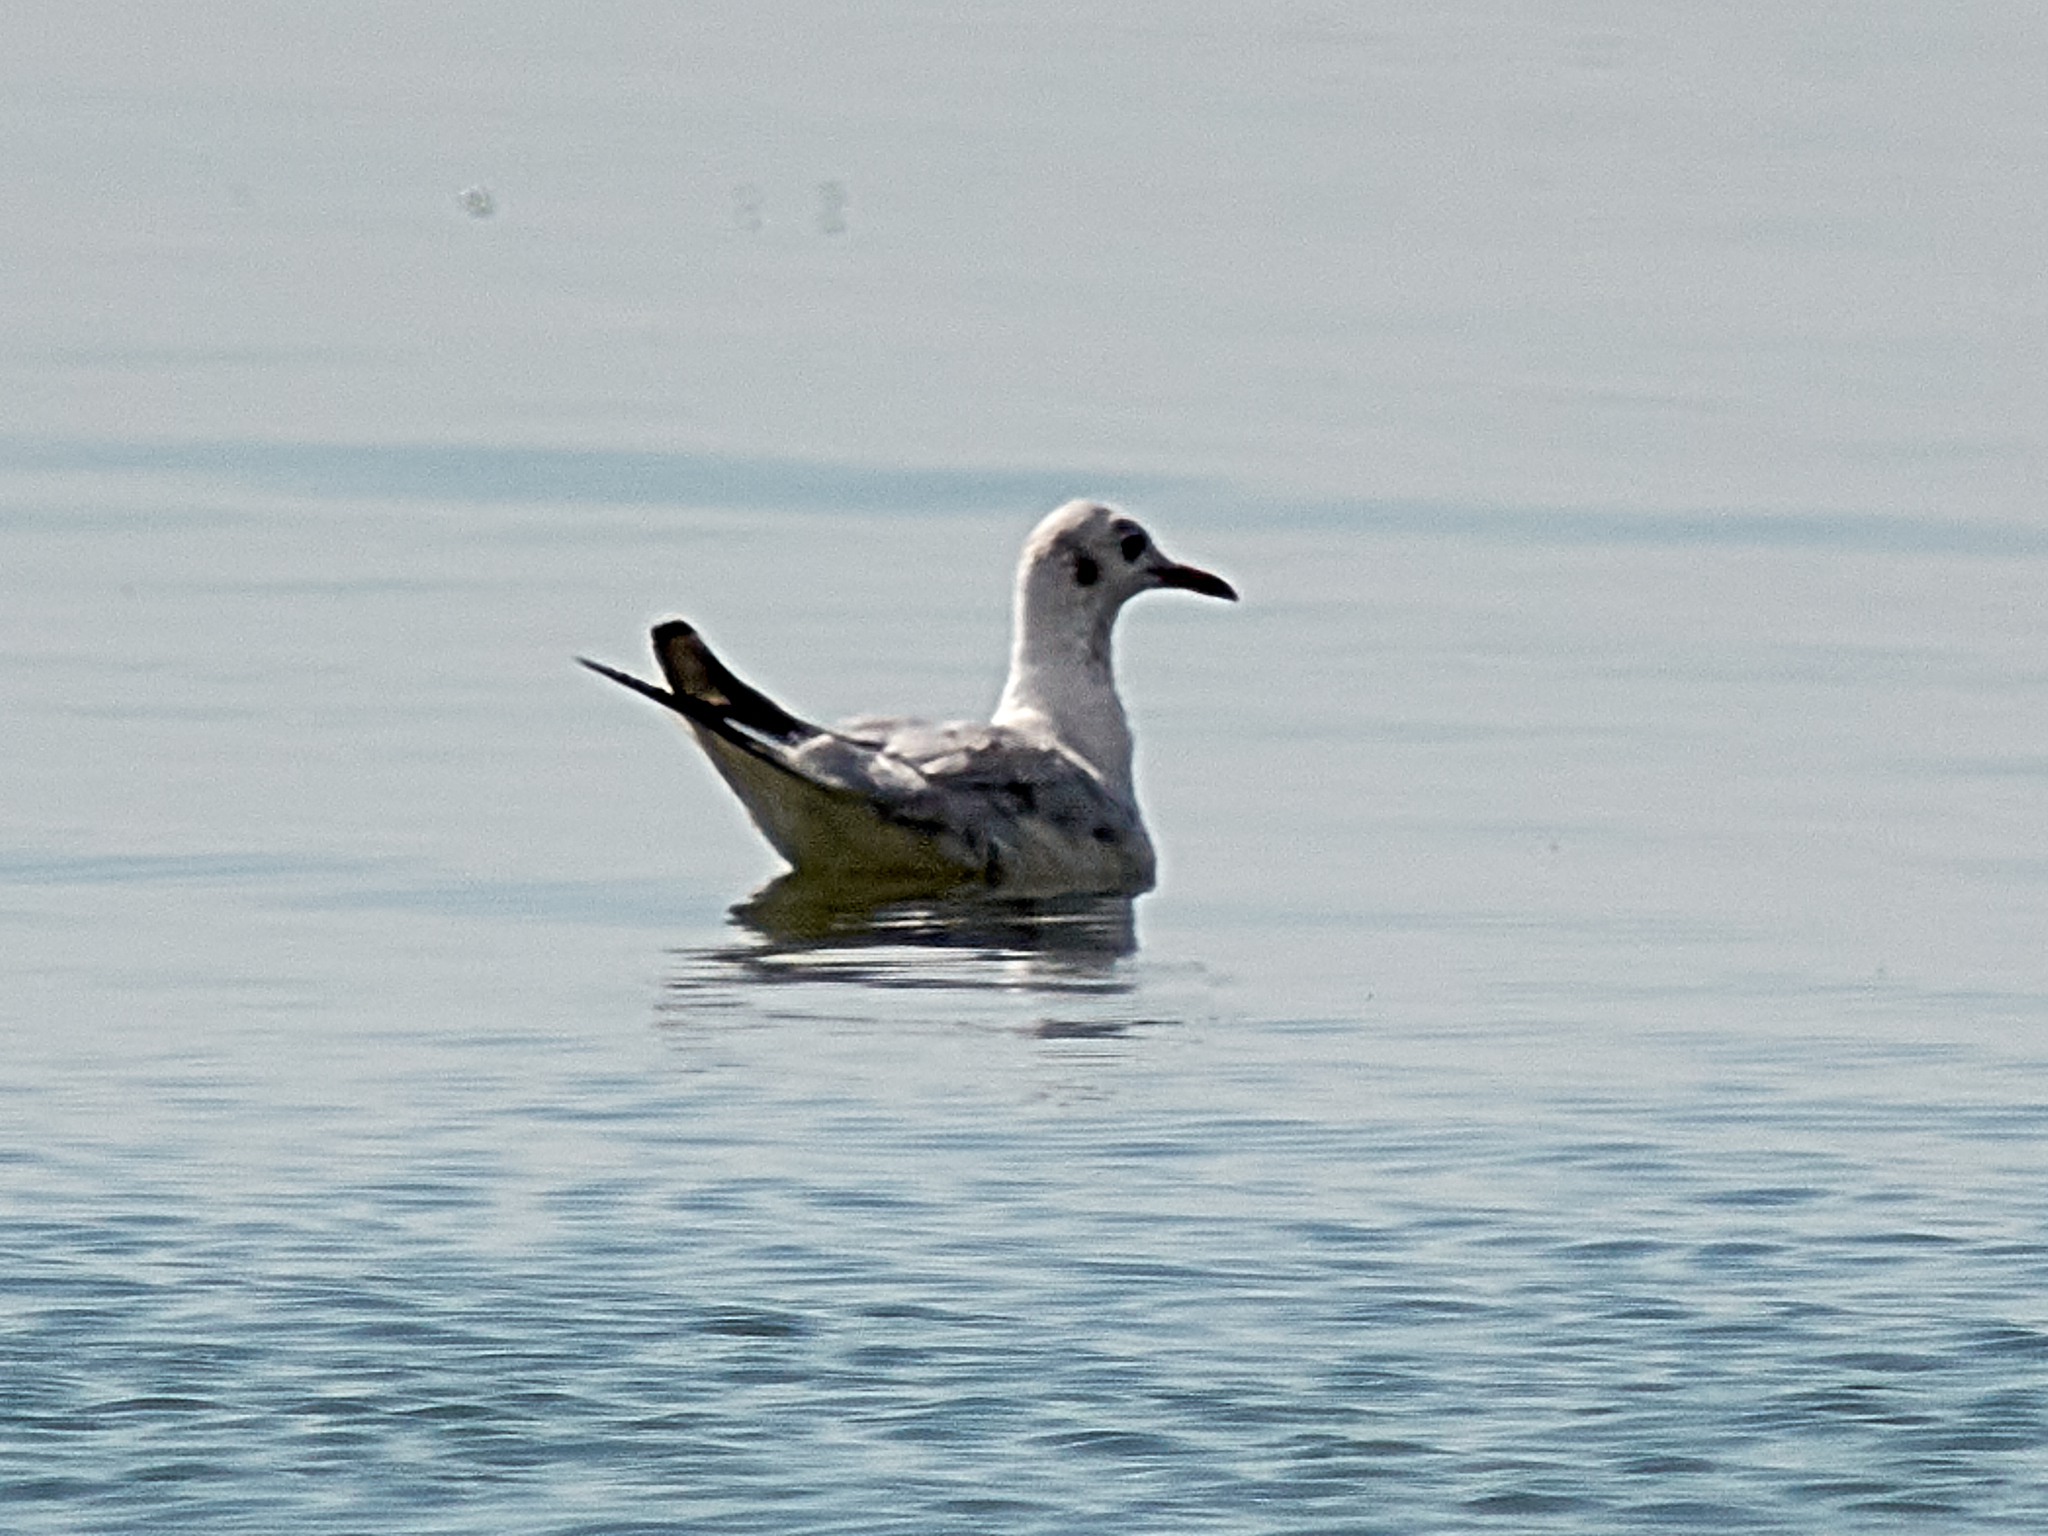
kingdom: Animalia
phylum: Chordata
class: Aves
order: Charadriiformes
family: Laridae
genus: Chroicocephalus
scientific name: Chroicocephalus ridibundus
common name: Black-headed gull
